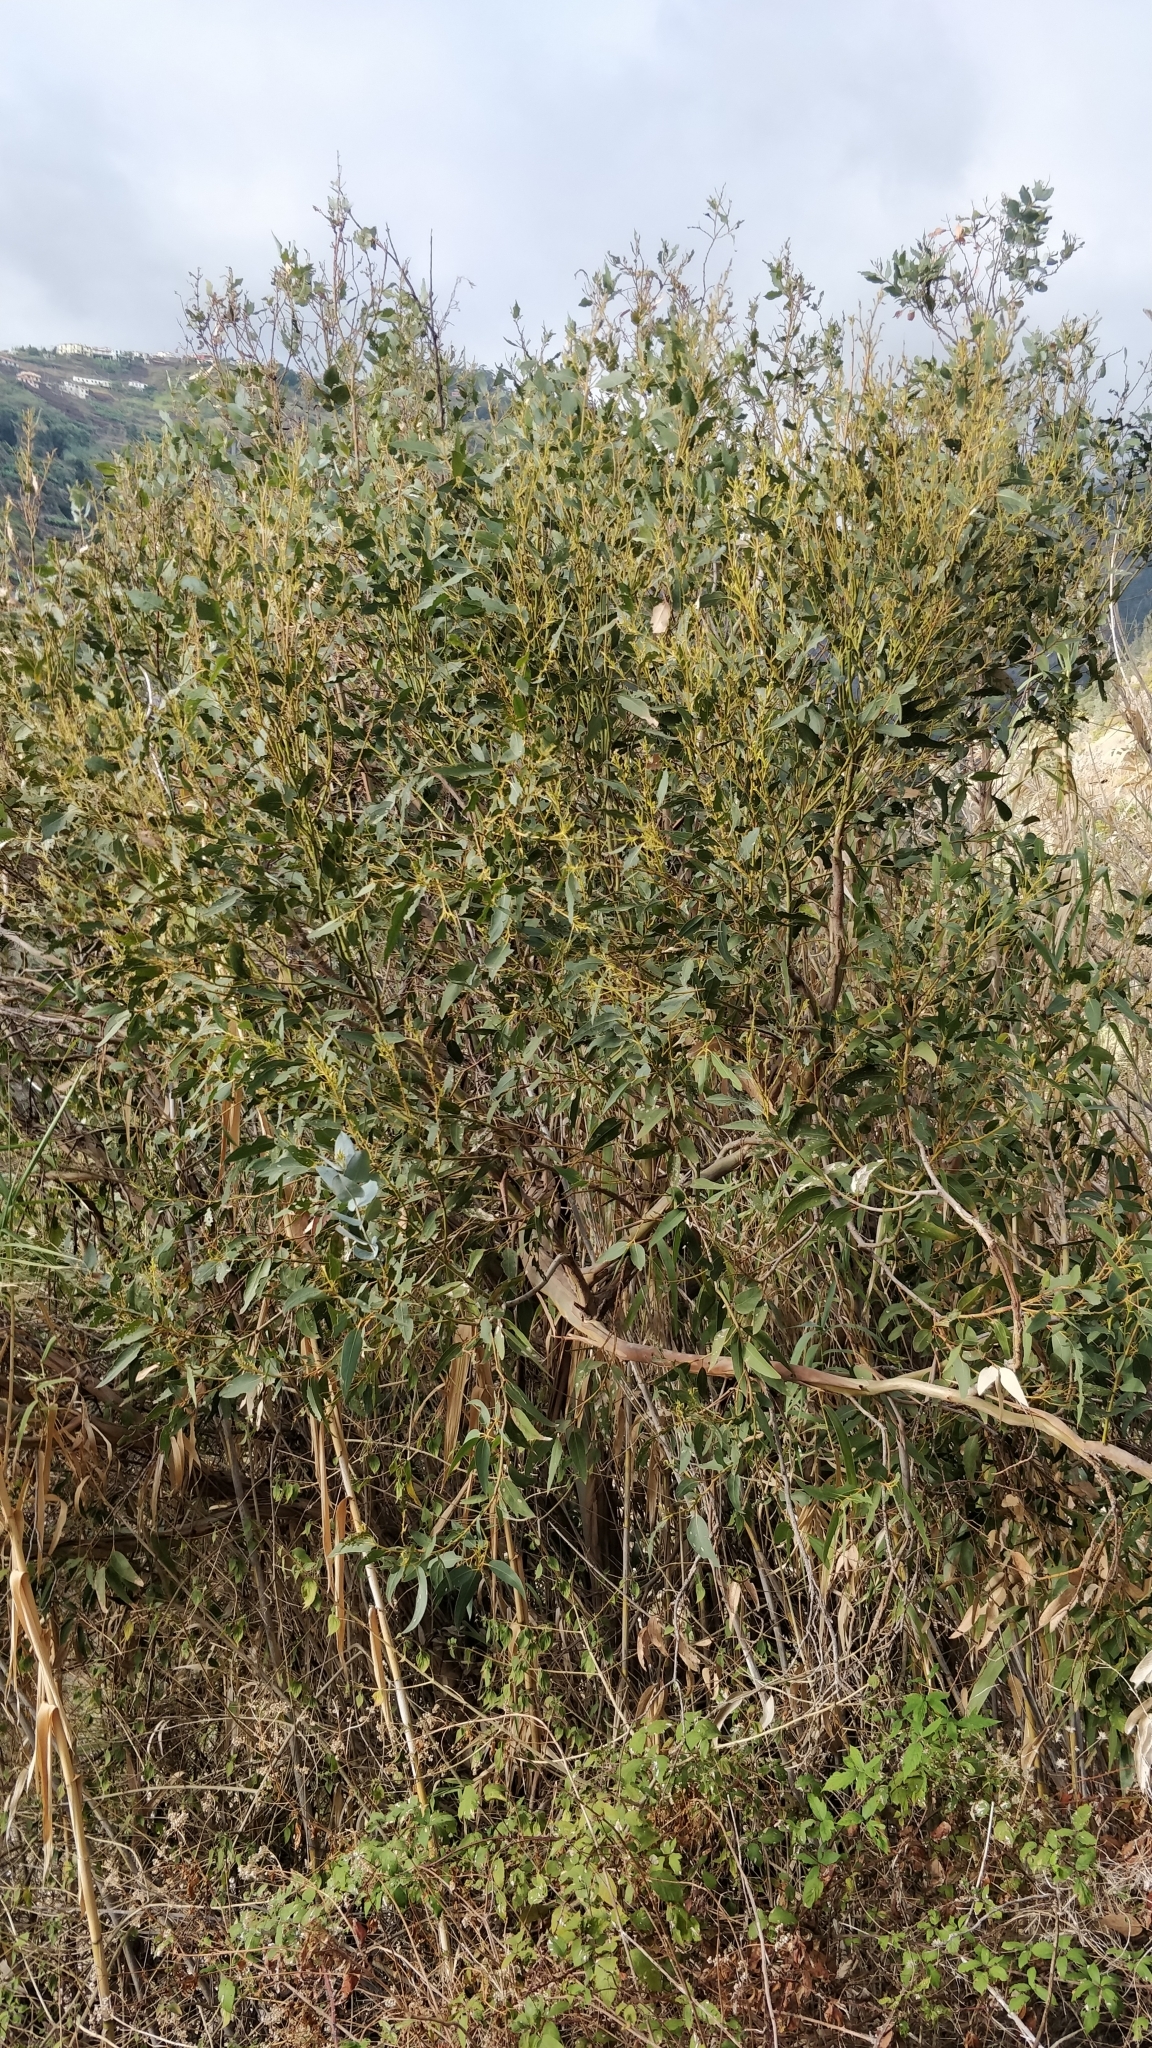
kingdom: Plantae
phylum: Tracheophyta
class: Magnoliopsida
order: Myrtales
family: Myrtaceae
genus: Eucalyptus
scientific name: Eucalyptus globulus
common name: Southern blue-gum
